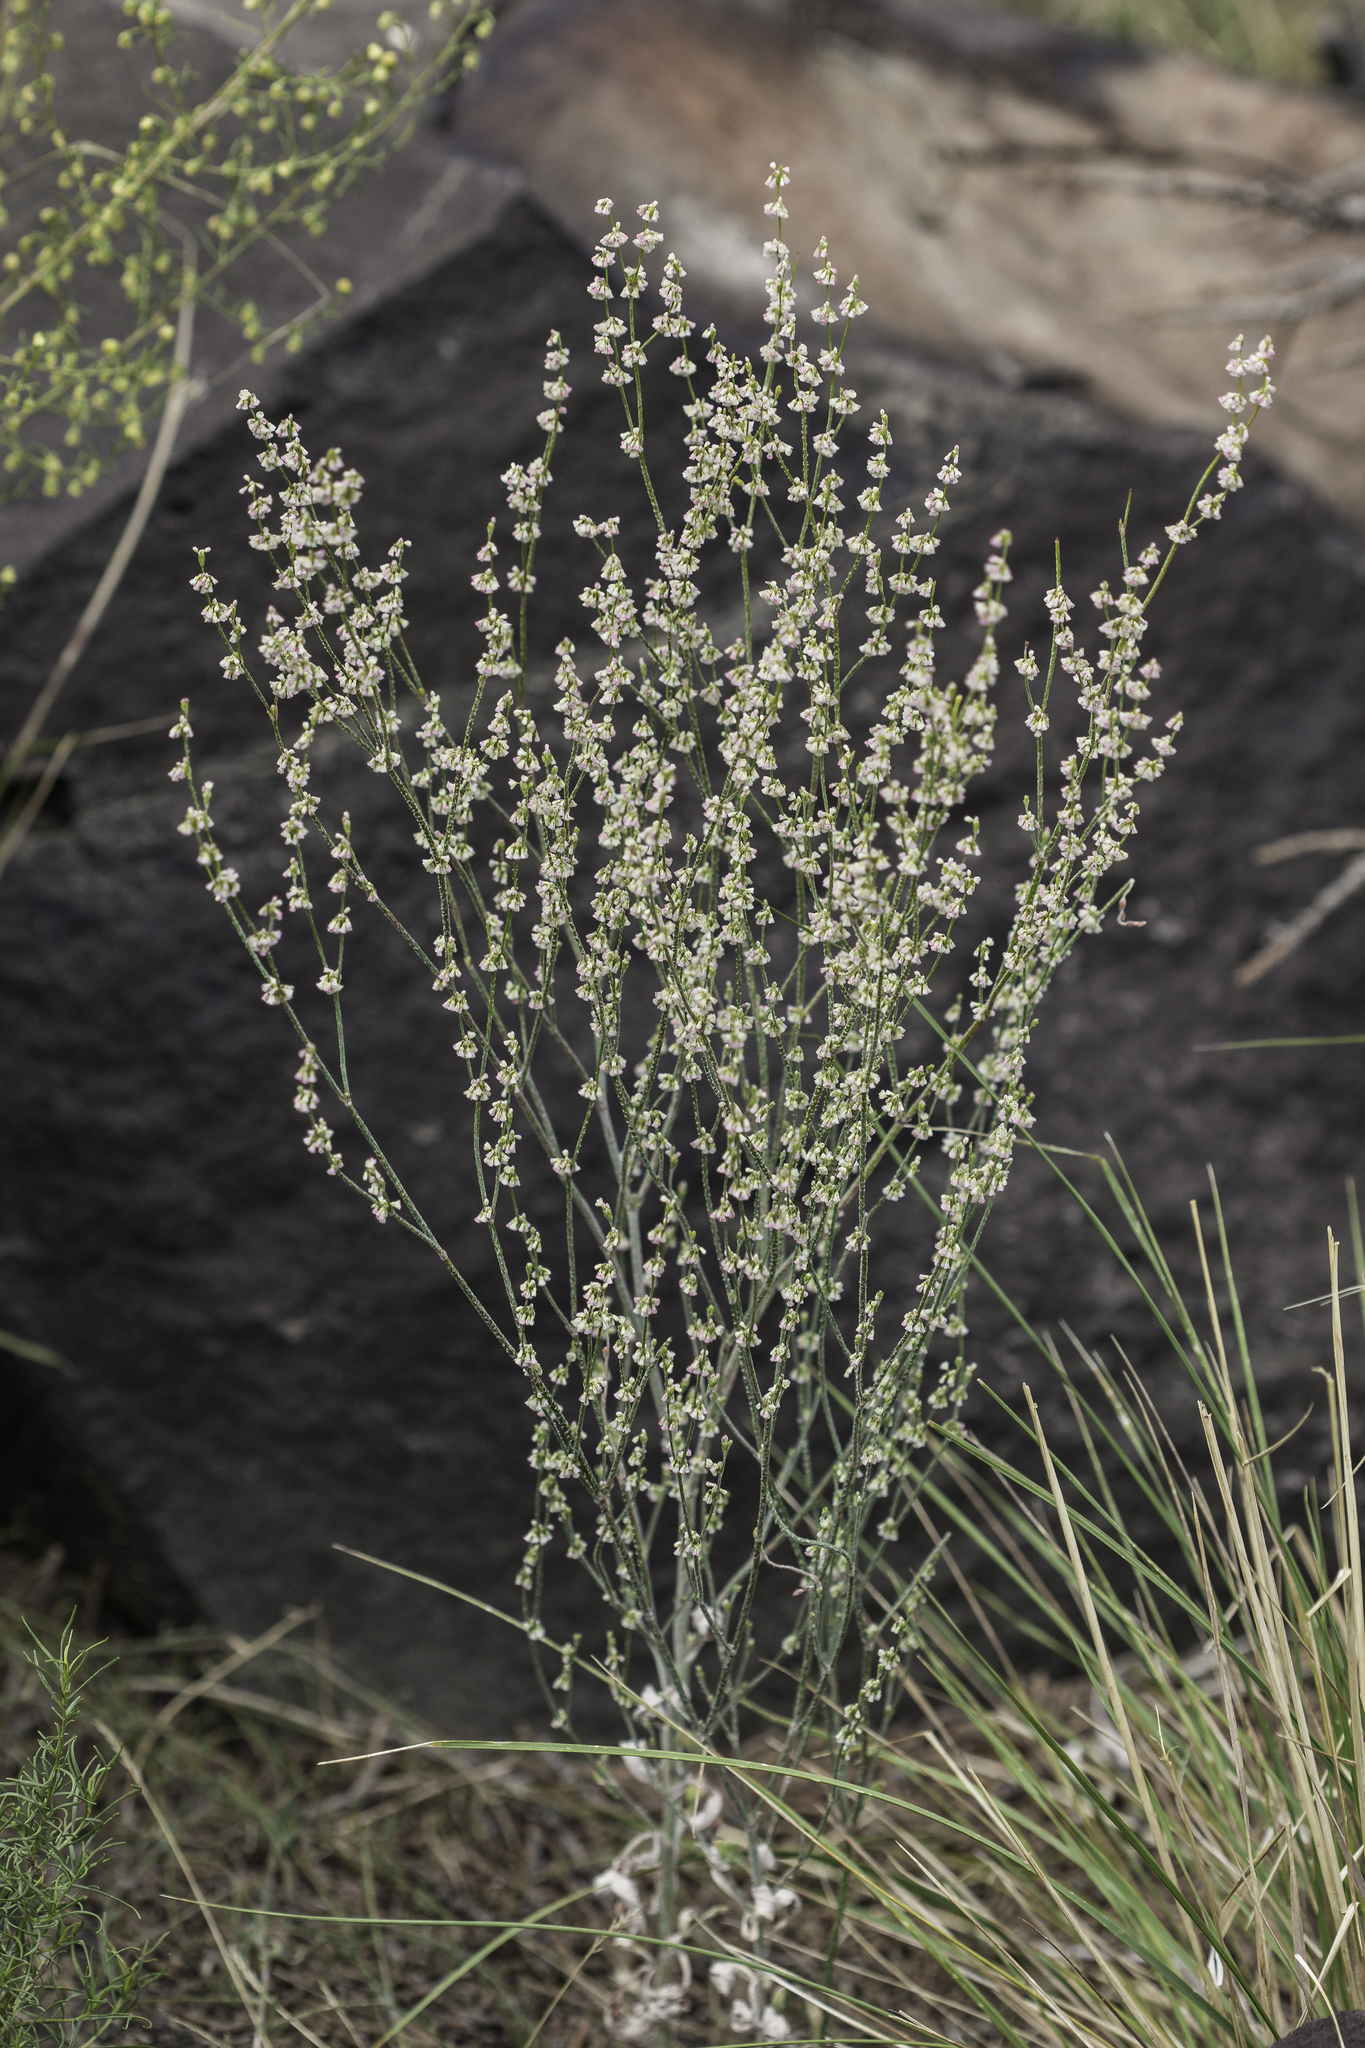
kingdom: Plantae
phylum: Tracheophyta
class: Magnoliopsida
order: Caryophyllales
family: Polygonaceae
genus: Eriogonum
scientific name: Eriogonum polycladon
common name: Sorrel wild buckwheat
